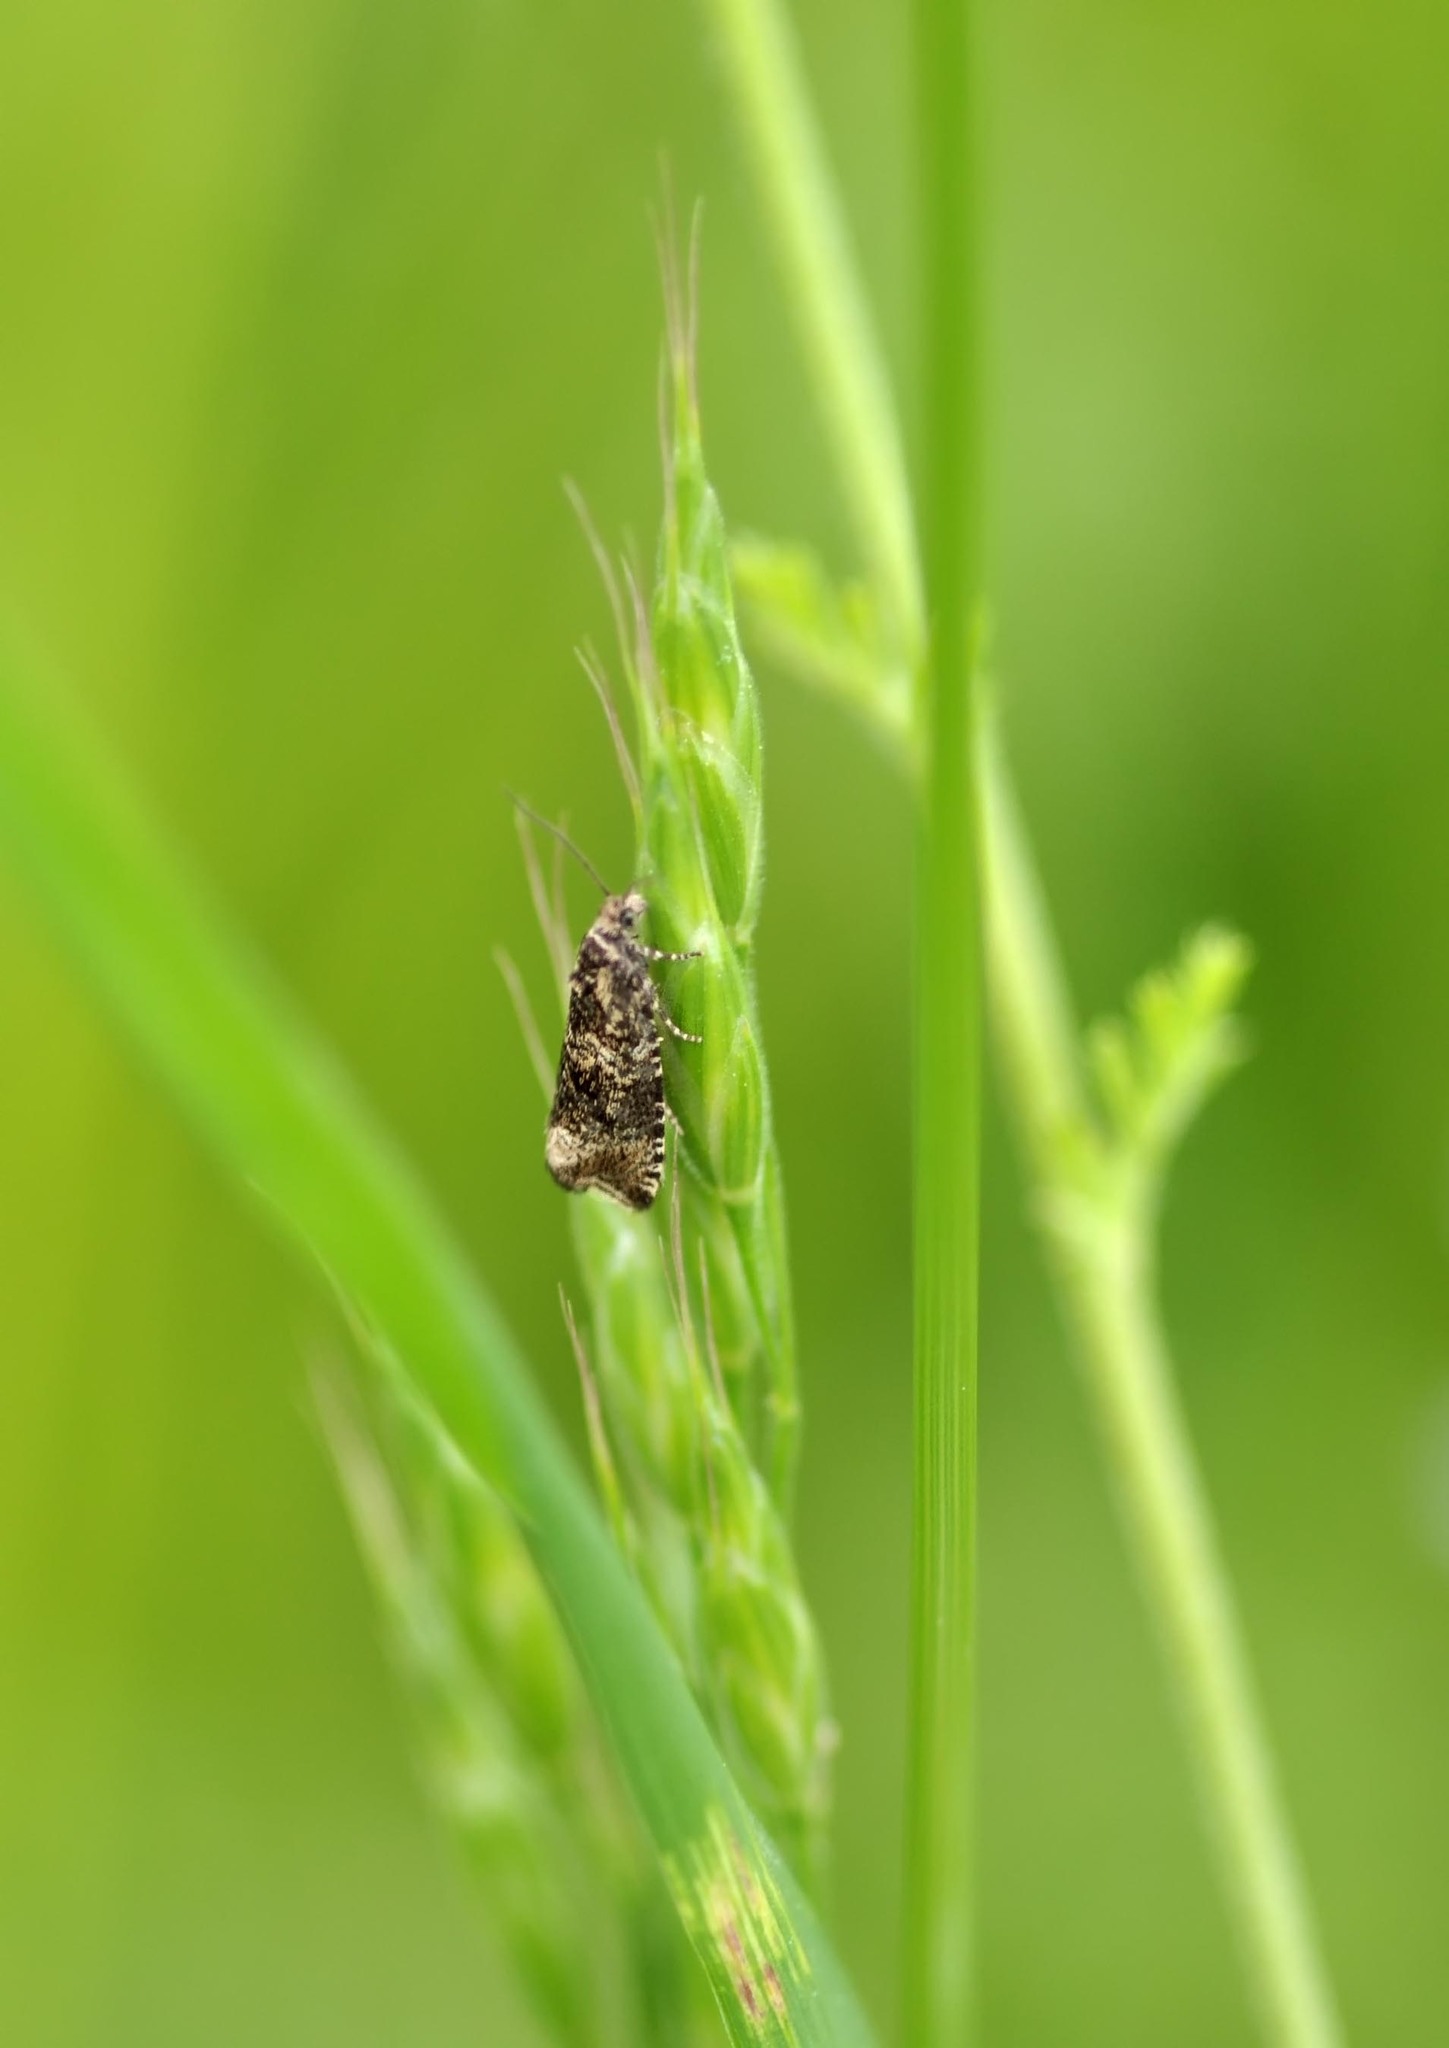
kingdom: Animalia
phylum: Arthropoda
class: Insecta
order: Lepidoptera
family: Tortricidae
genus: Syricoris
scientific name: Syricoris lacunana
